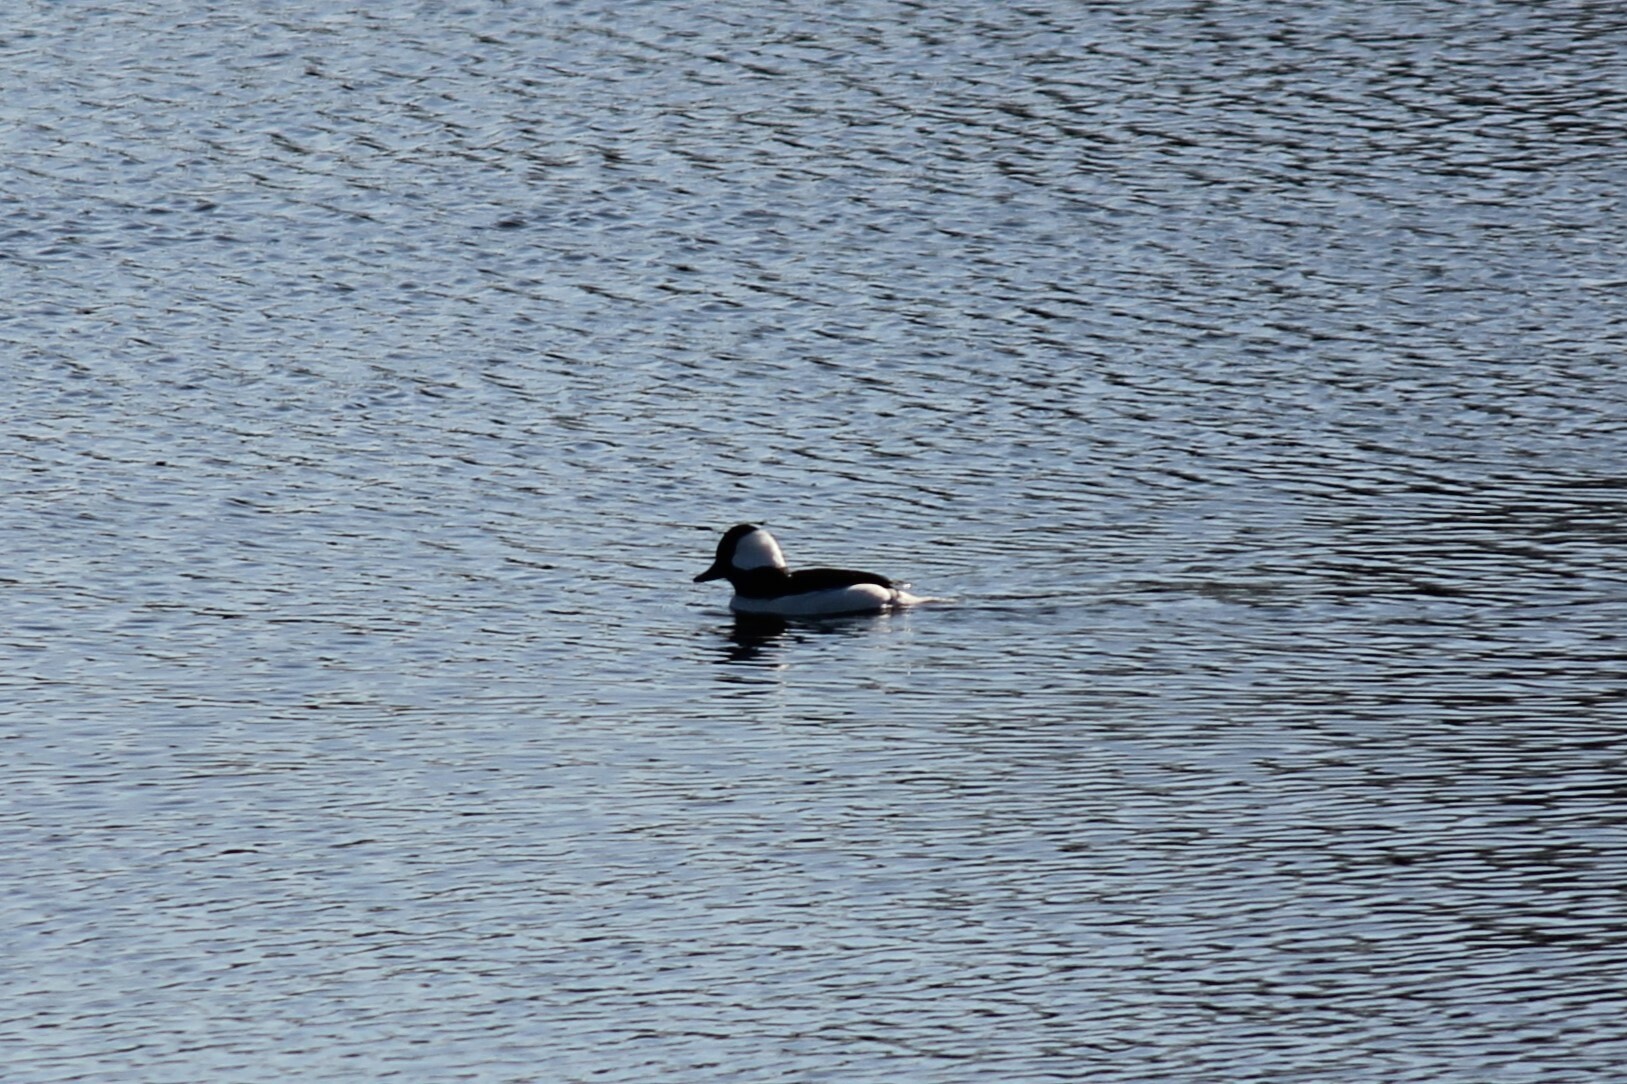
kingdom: Animalia
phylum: Chordata
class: Aves
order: Anseriformes
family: Anatidae
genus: Bucephala
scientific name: Bucephala albeola
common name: Bufflehead
